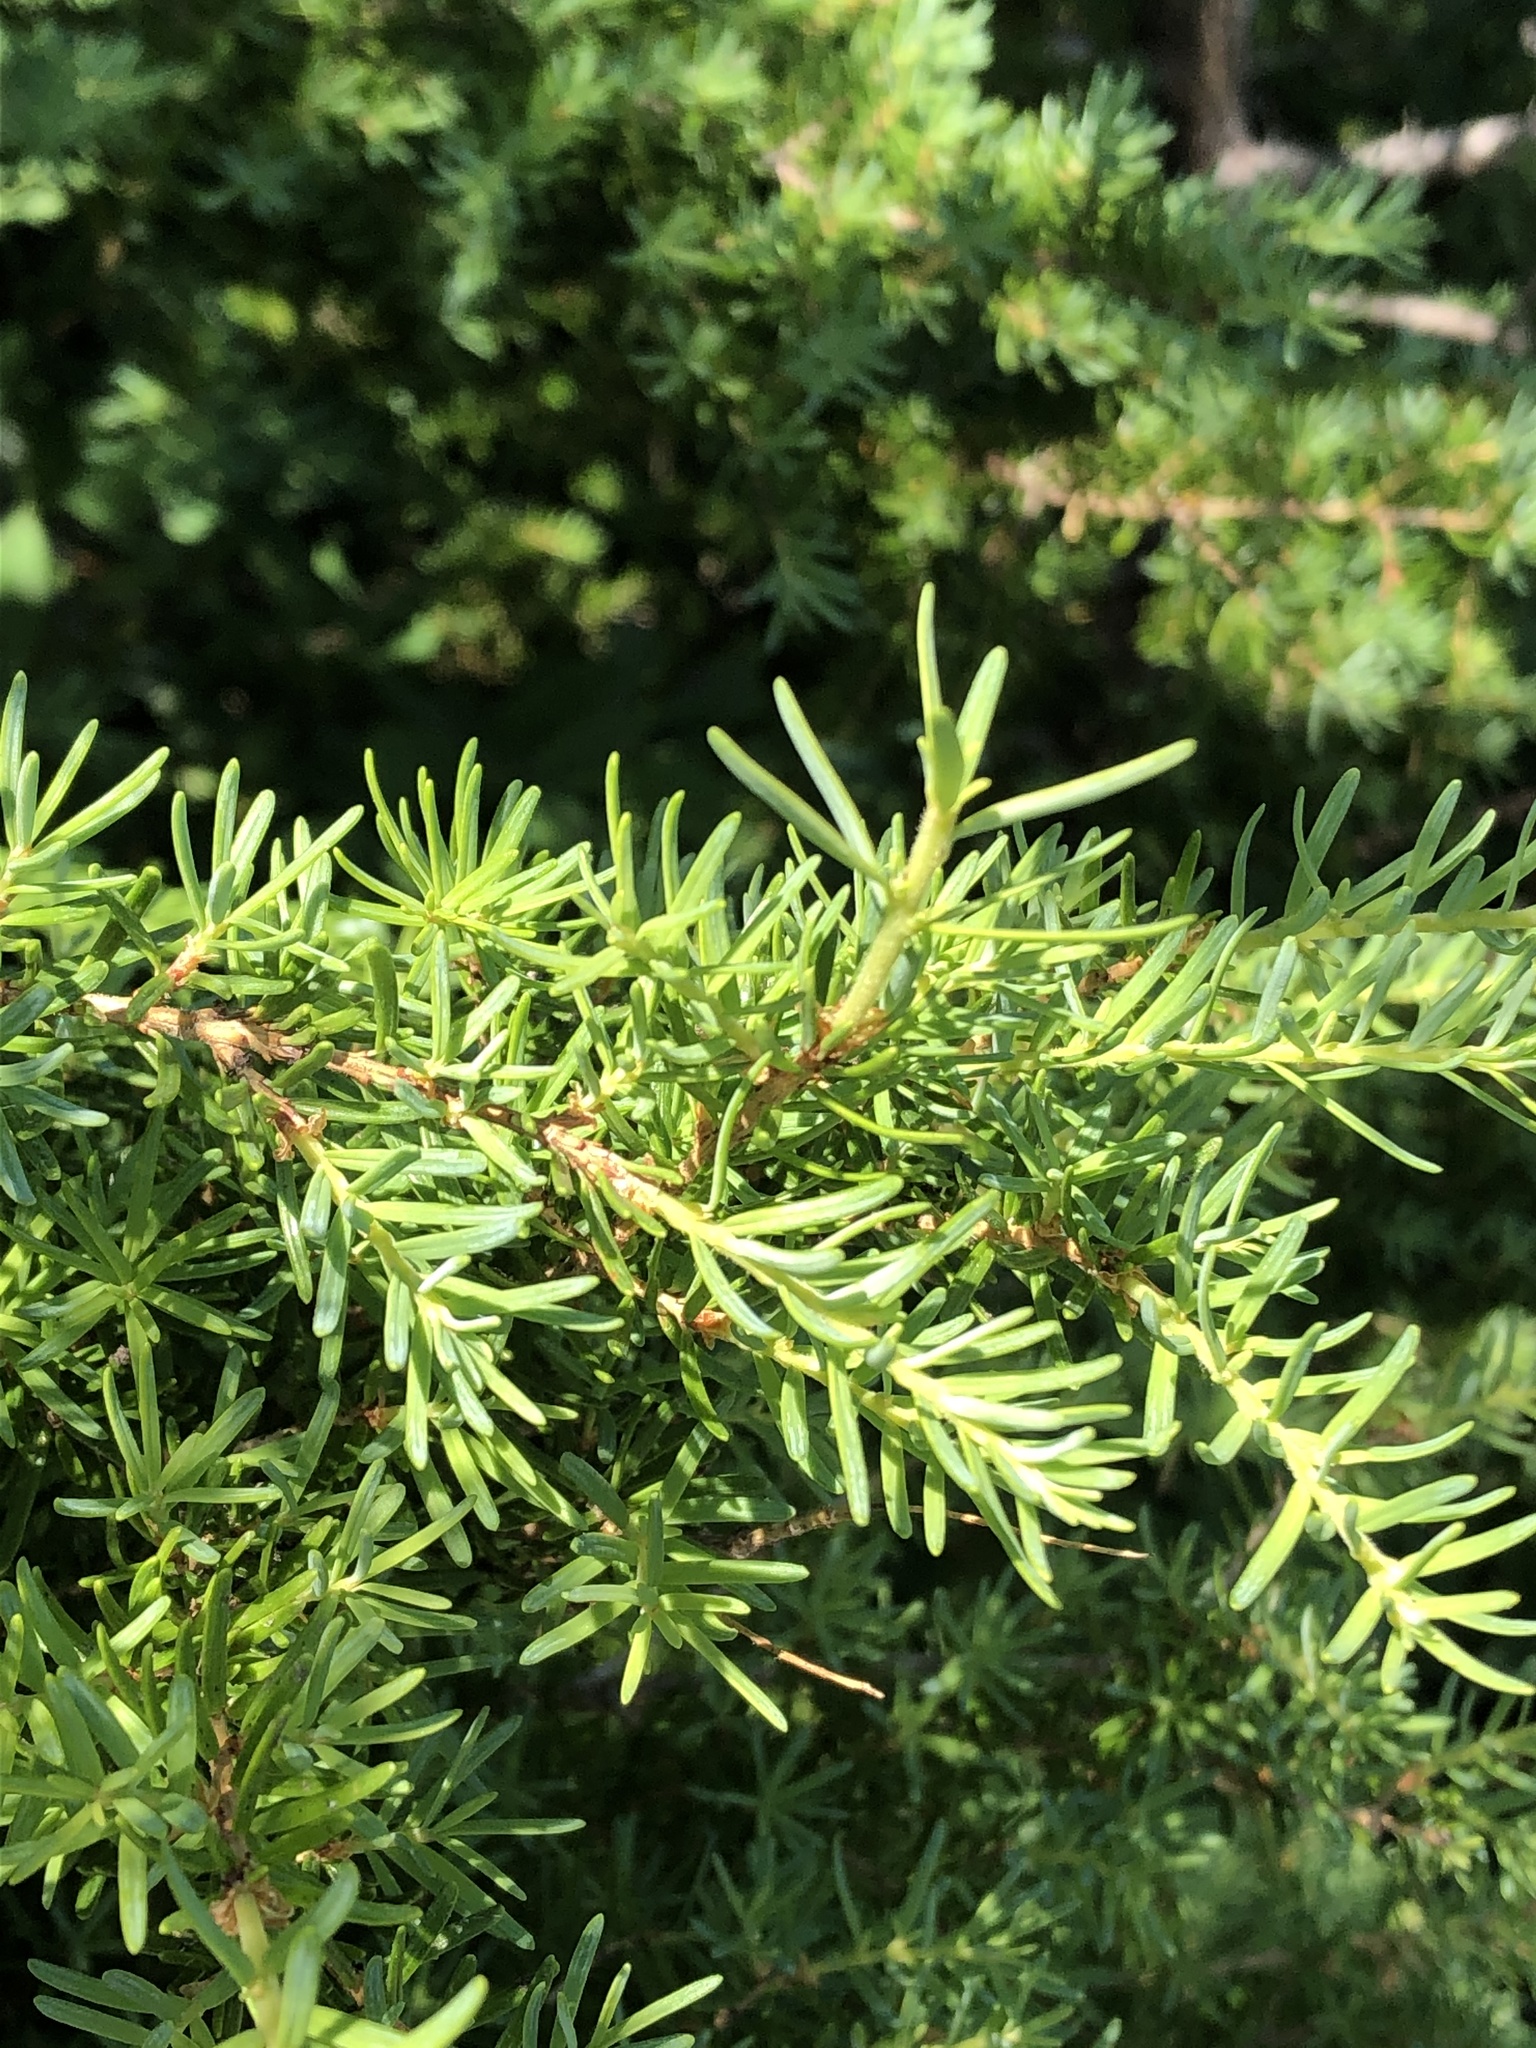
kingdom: Plantae
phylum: Tracheophyta
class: Pinopsida
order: Pinales
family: Pinaceae
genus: Tsuga
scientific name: Tsuga mertensiana
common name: Mountain hemlock
